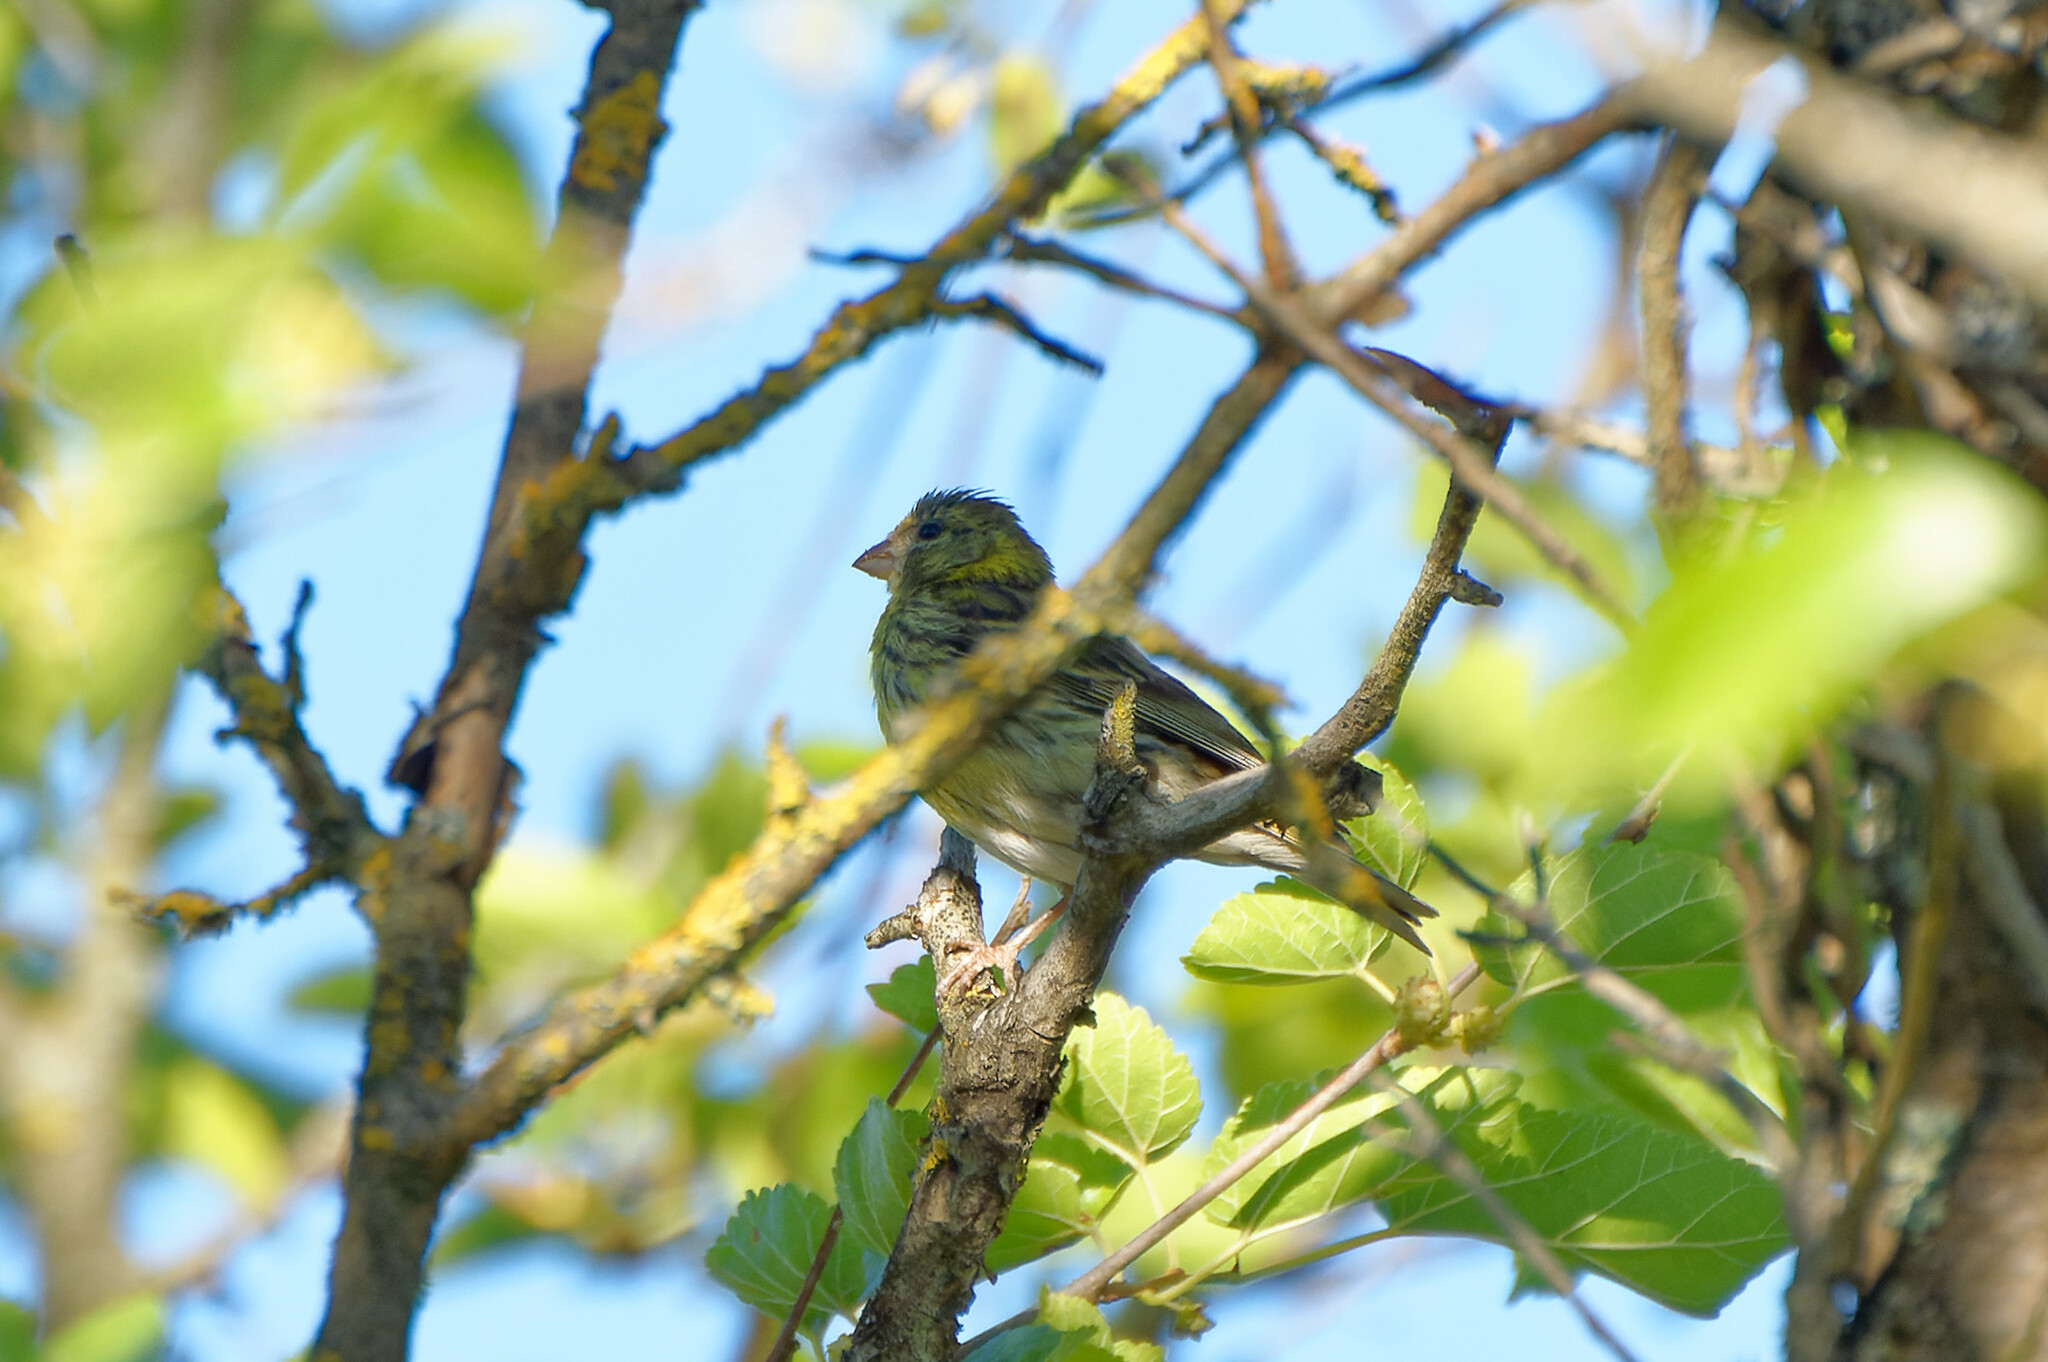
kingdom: Animalia
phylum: Chordata
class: Aves
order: Passeriformes
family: Fringillidae
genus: Serinus
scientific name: Serinus serinus
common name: European serin
